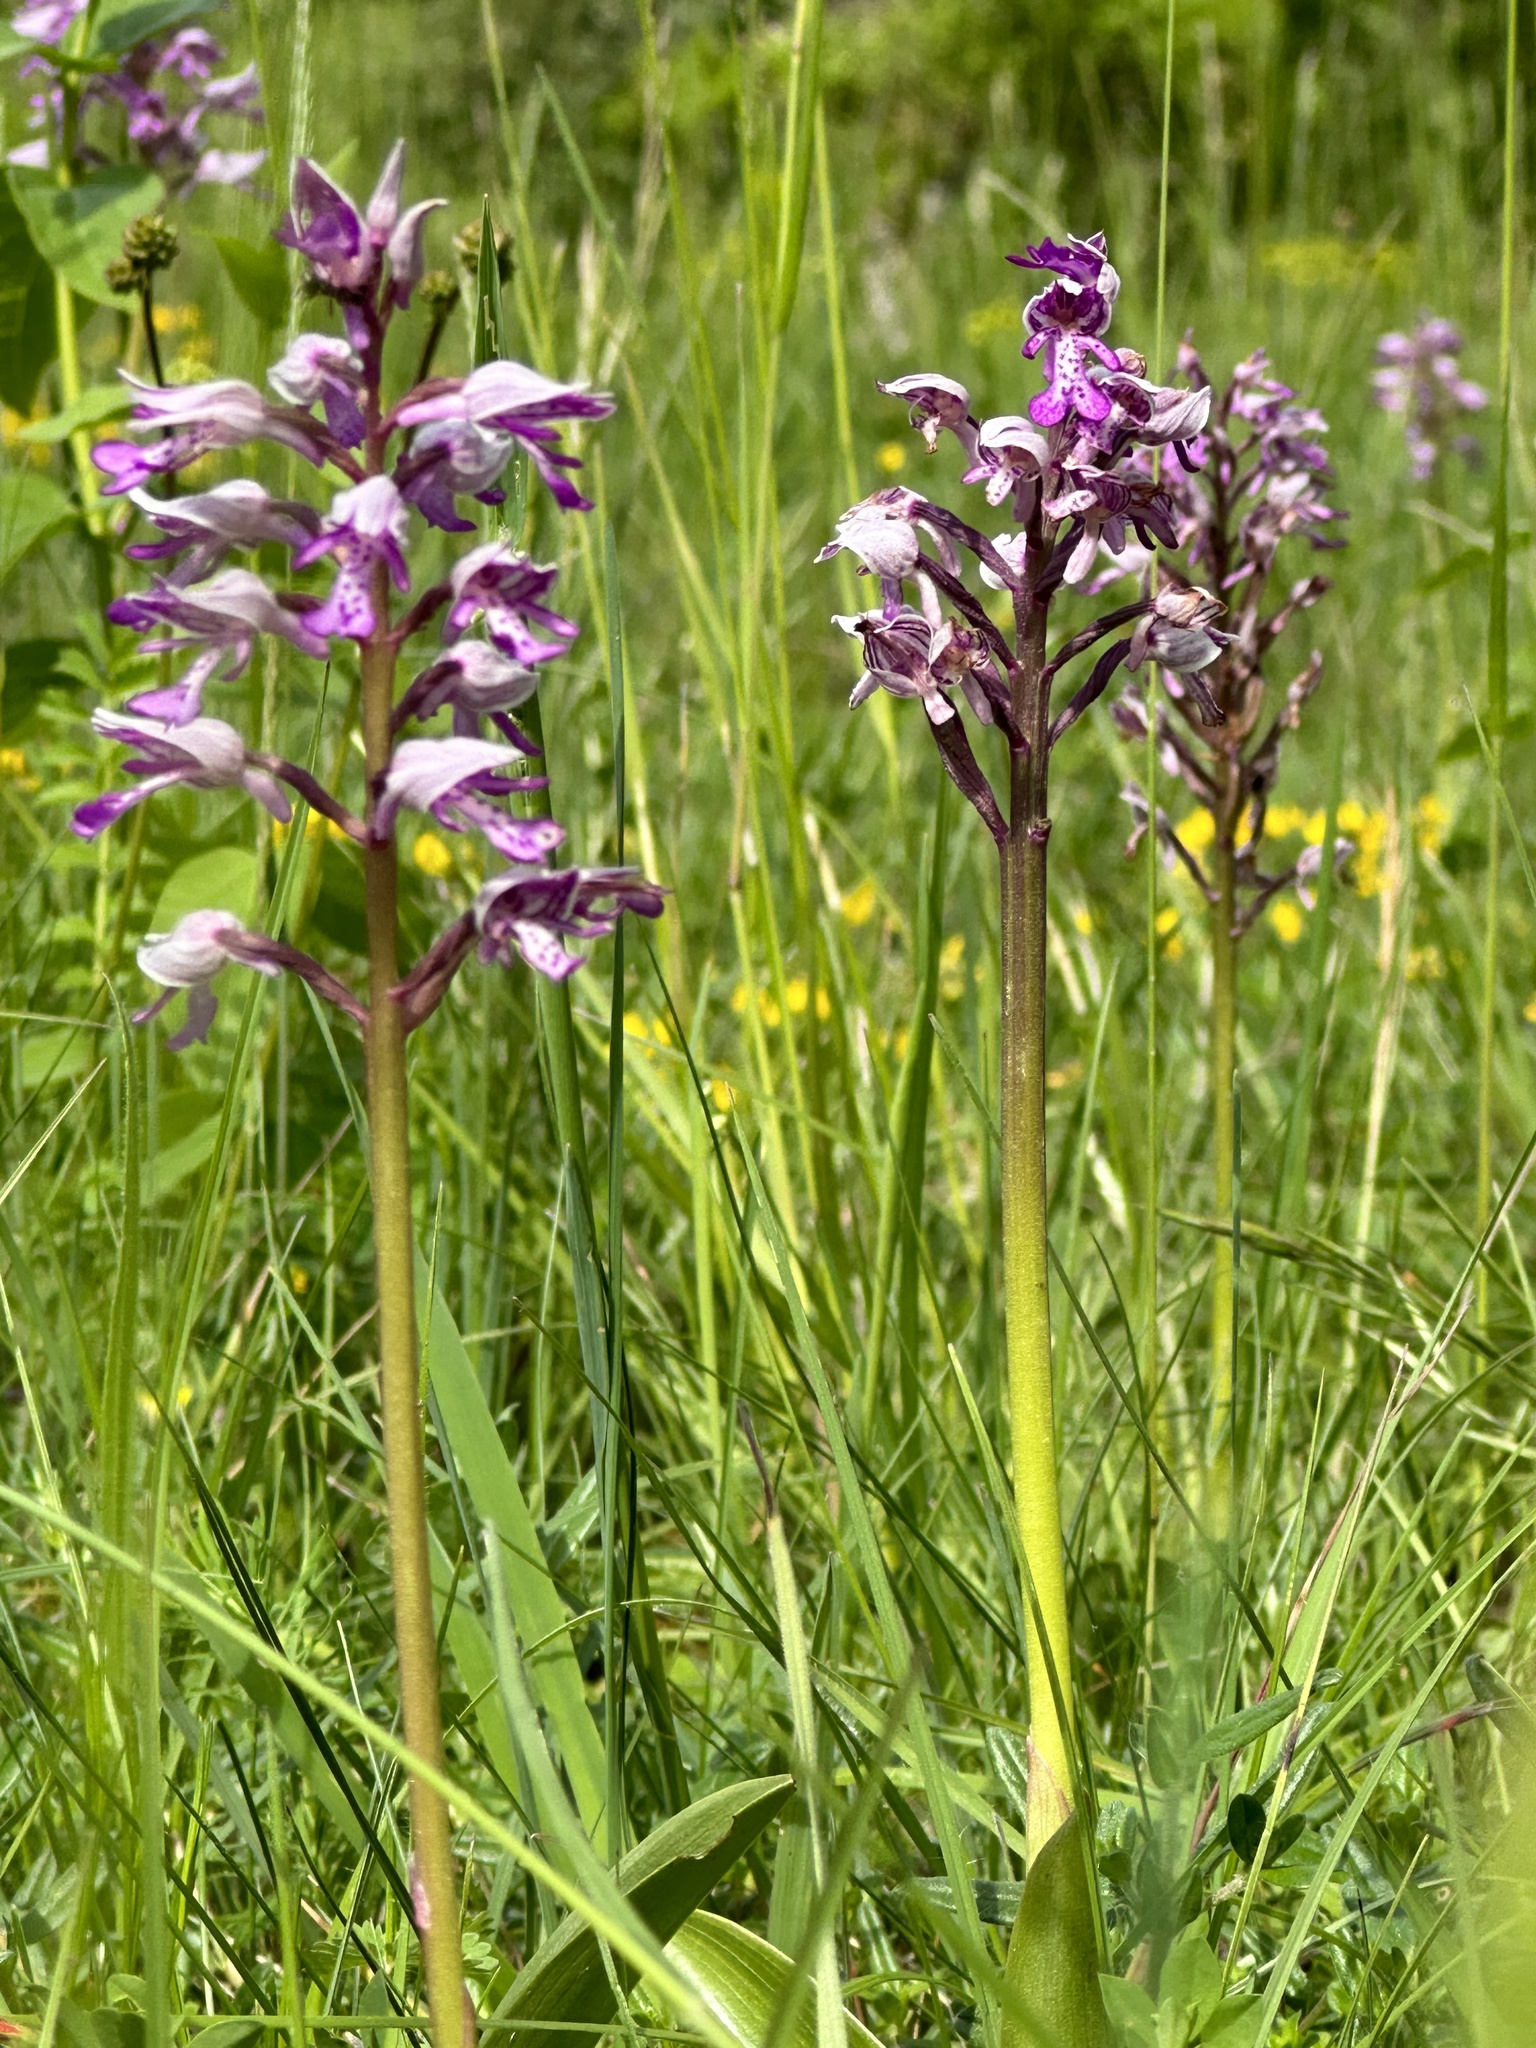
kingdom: Plantae
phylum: Tracheophyta
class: Liliopsida
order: Asparagales
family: Orchidaceae
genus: Orchis
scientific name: Orchis militaris
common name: Military orchid
